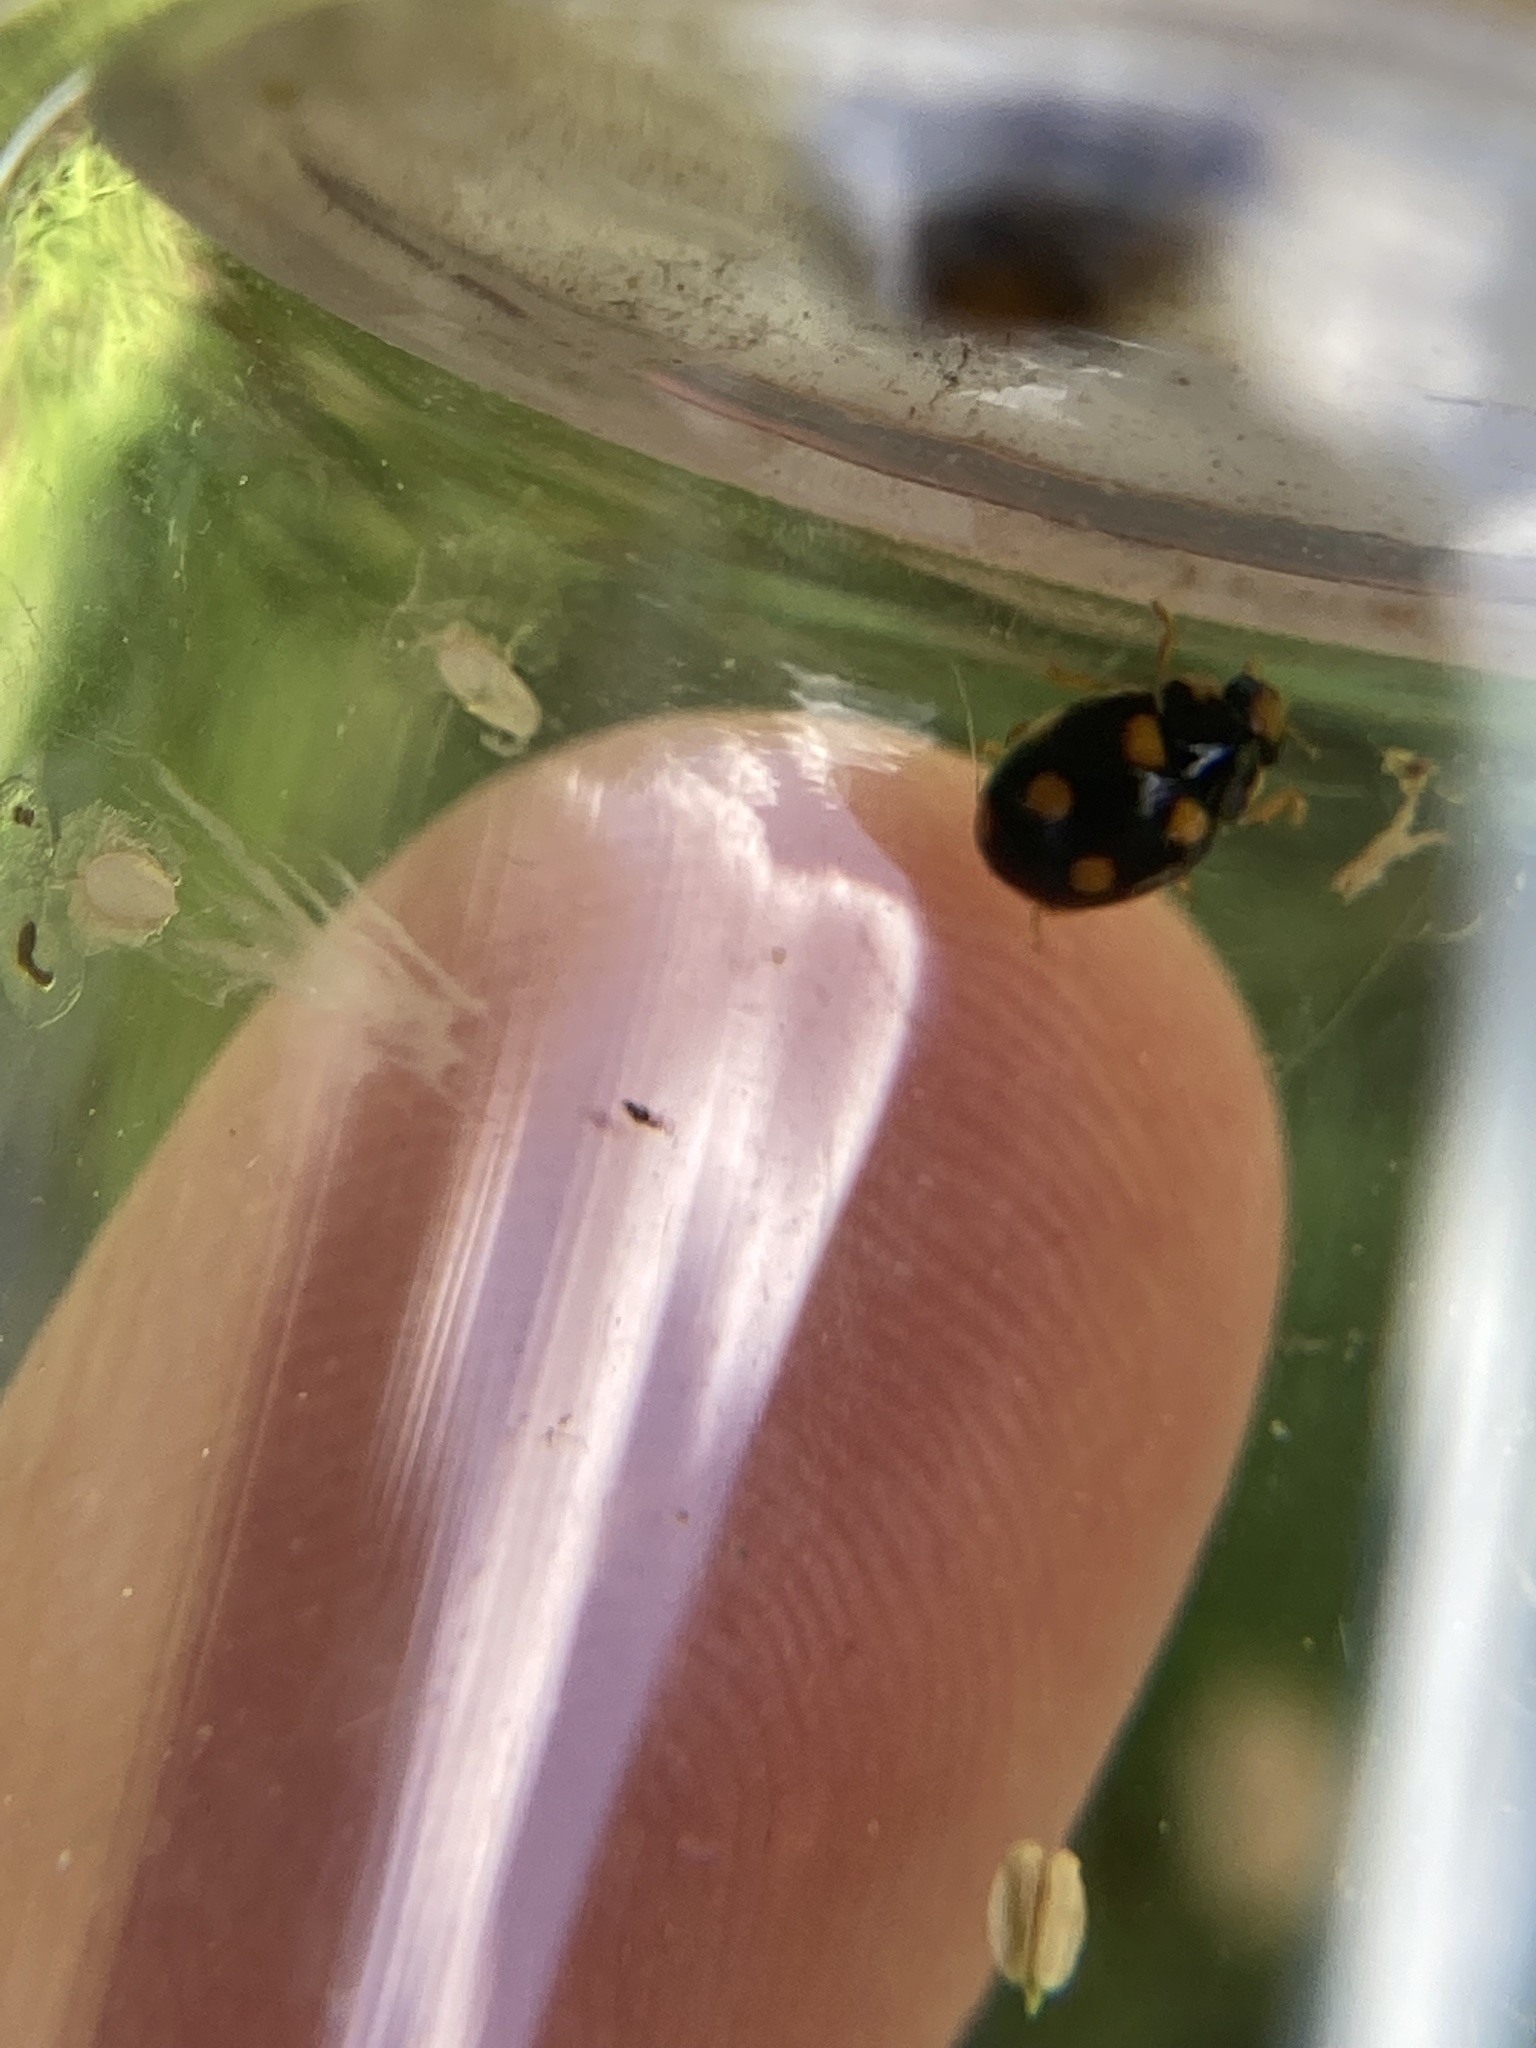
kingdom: Animalia
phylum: Arthropoda
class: Insecta
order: Coleoptera
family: Coccinellidae
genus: Brachiacantha
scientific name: Brachiacantha ursina
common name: Ursine spurleg lady beetle
